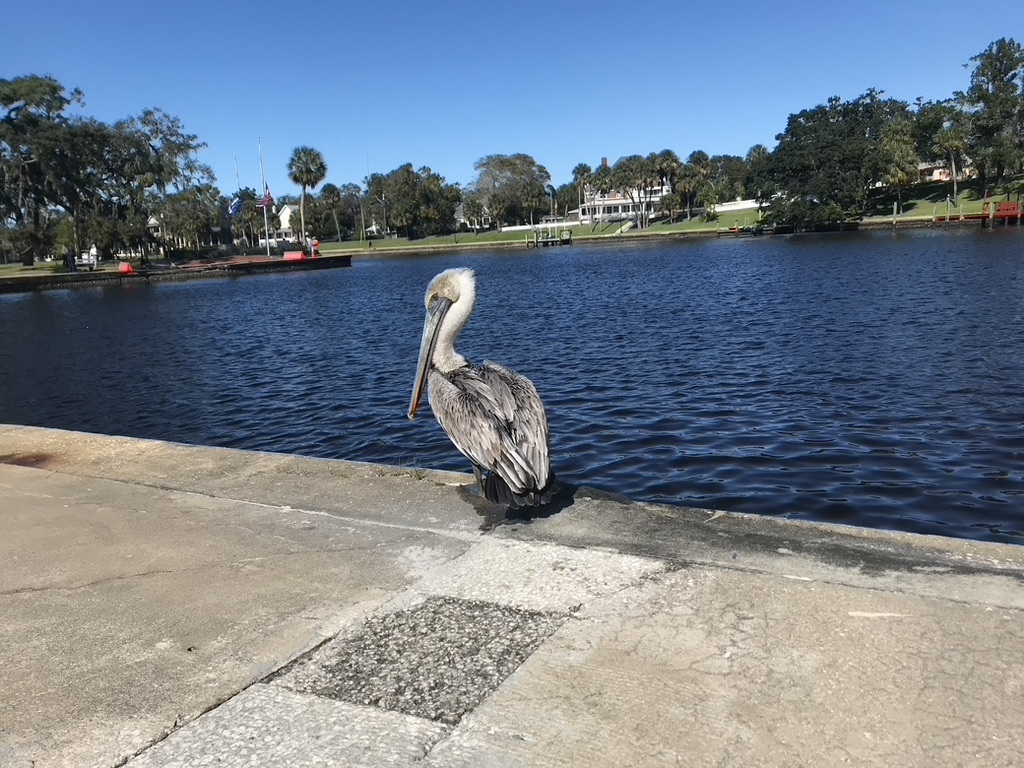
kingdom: Animalia
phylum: Chordata
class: Aves
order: Pelecaniformes
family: Pelecanidae
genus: Pelecanus
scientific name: Pelecanus occidentalis
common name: Brown pelican
